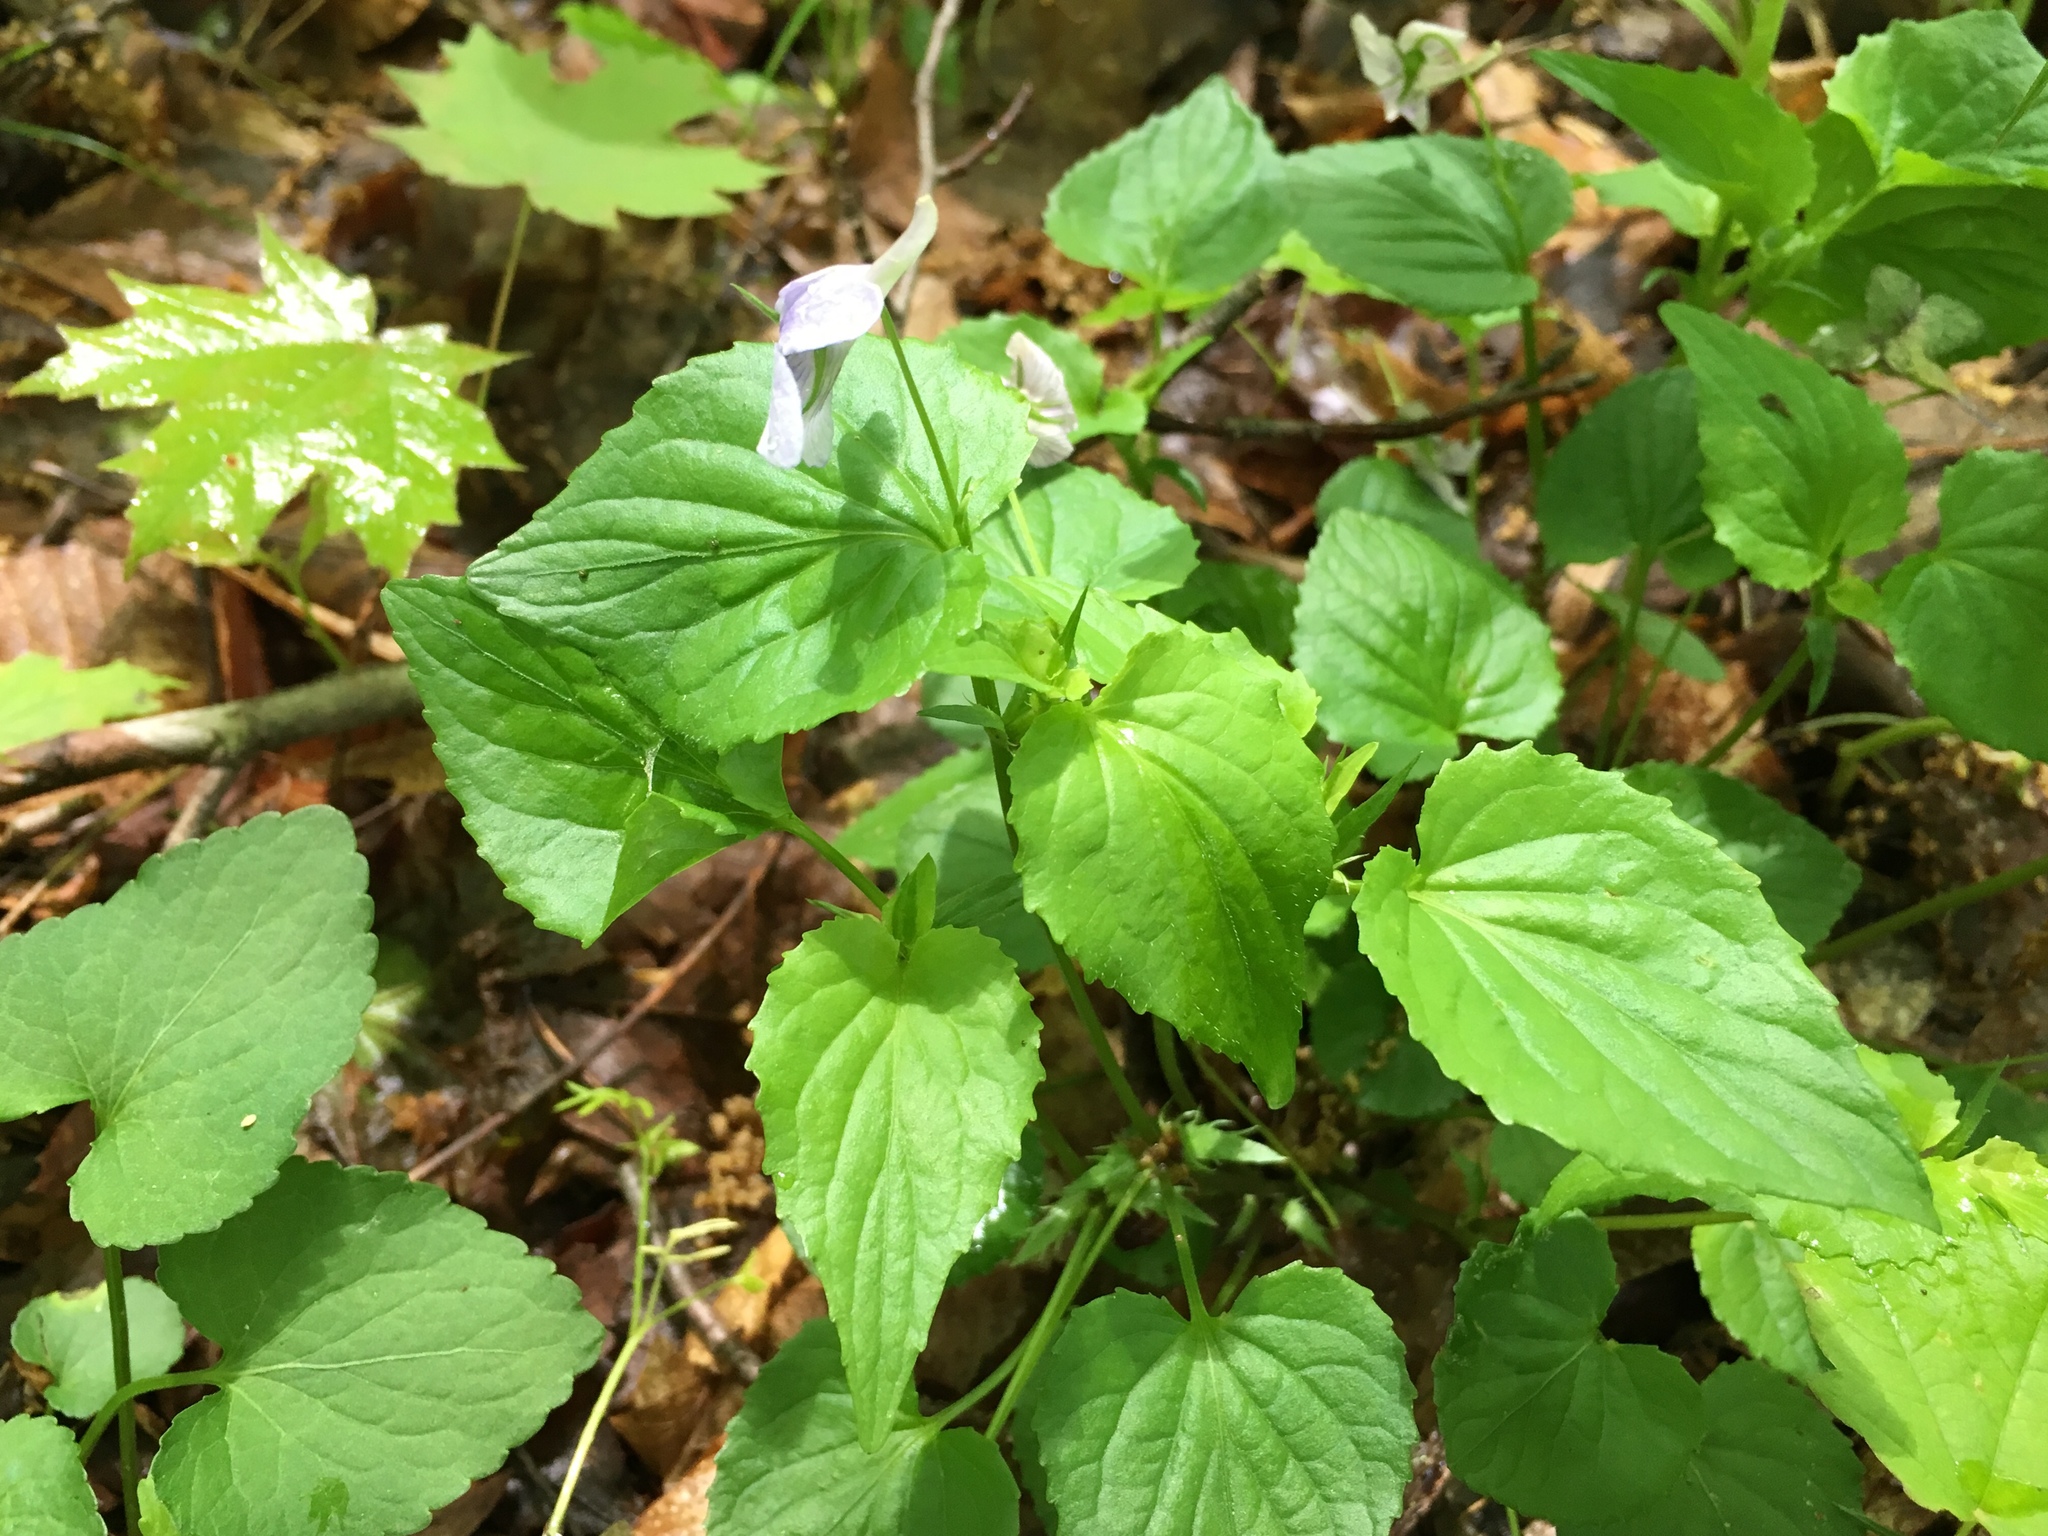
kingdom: Plantae
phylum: Tracheophyta
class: Magnoliopsida
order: Malpighiales
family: Violaceae
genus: Viola
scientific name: Viola rostrata
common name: Long-spur violet
